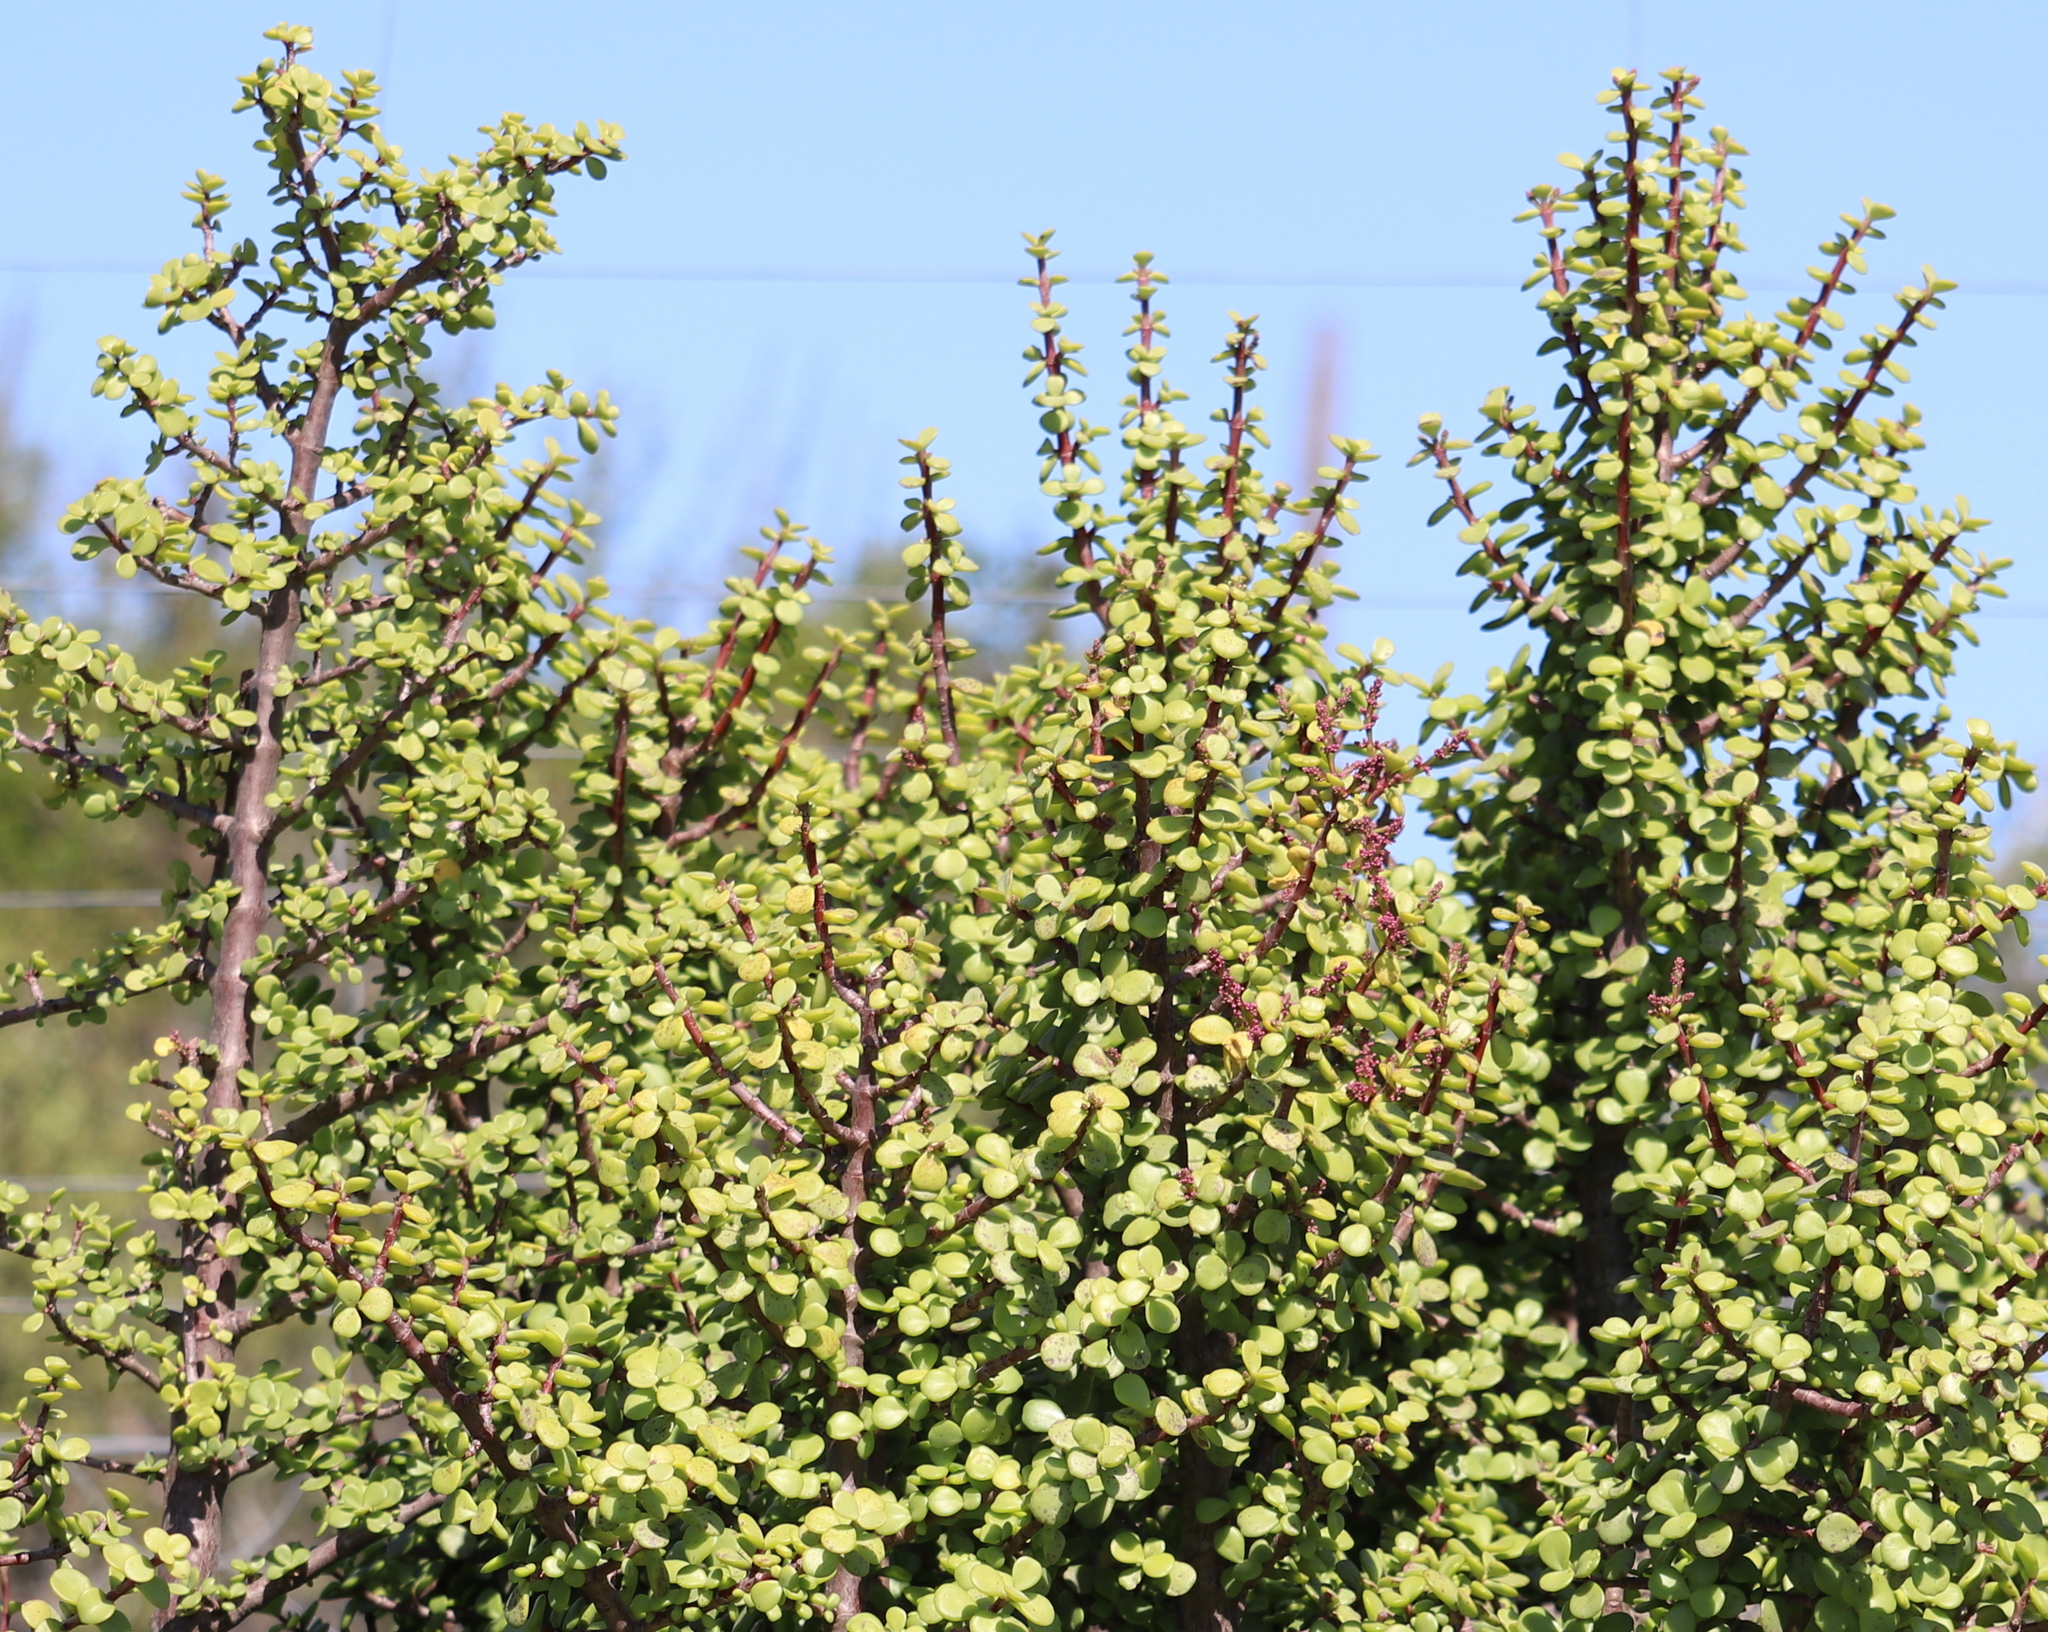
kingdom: Plantae
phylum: Tracheophyta
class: Magnoliopsida
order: Caryophyllales
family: Didiereaceae
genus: Portulacaria
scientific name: Portulacaria afra
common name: Elephant-bush
